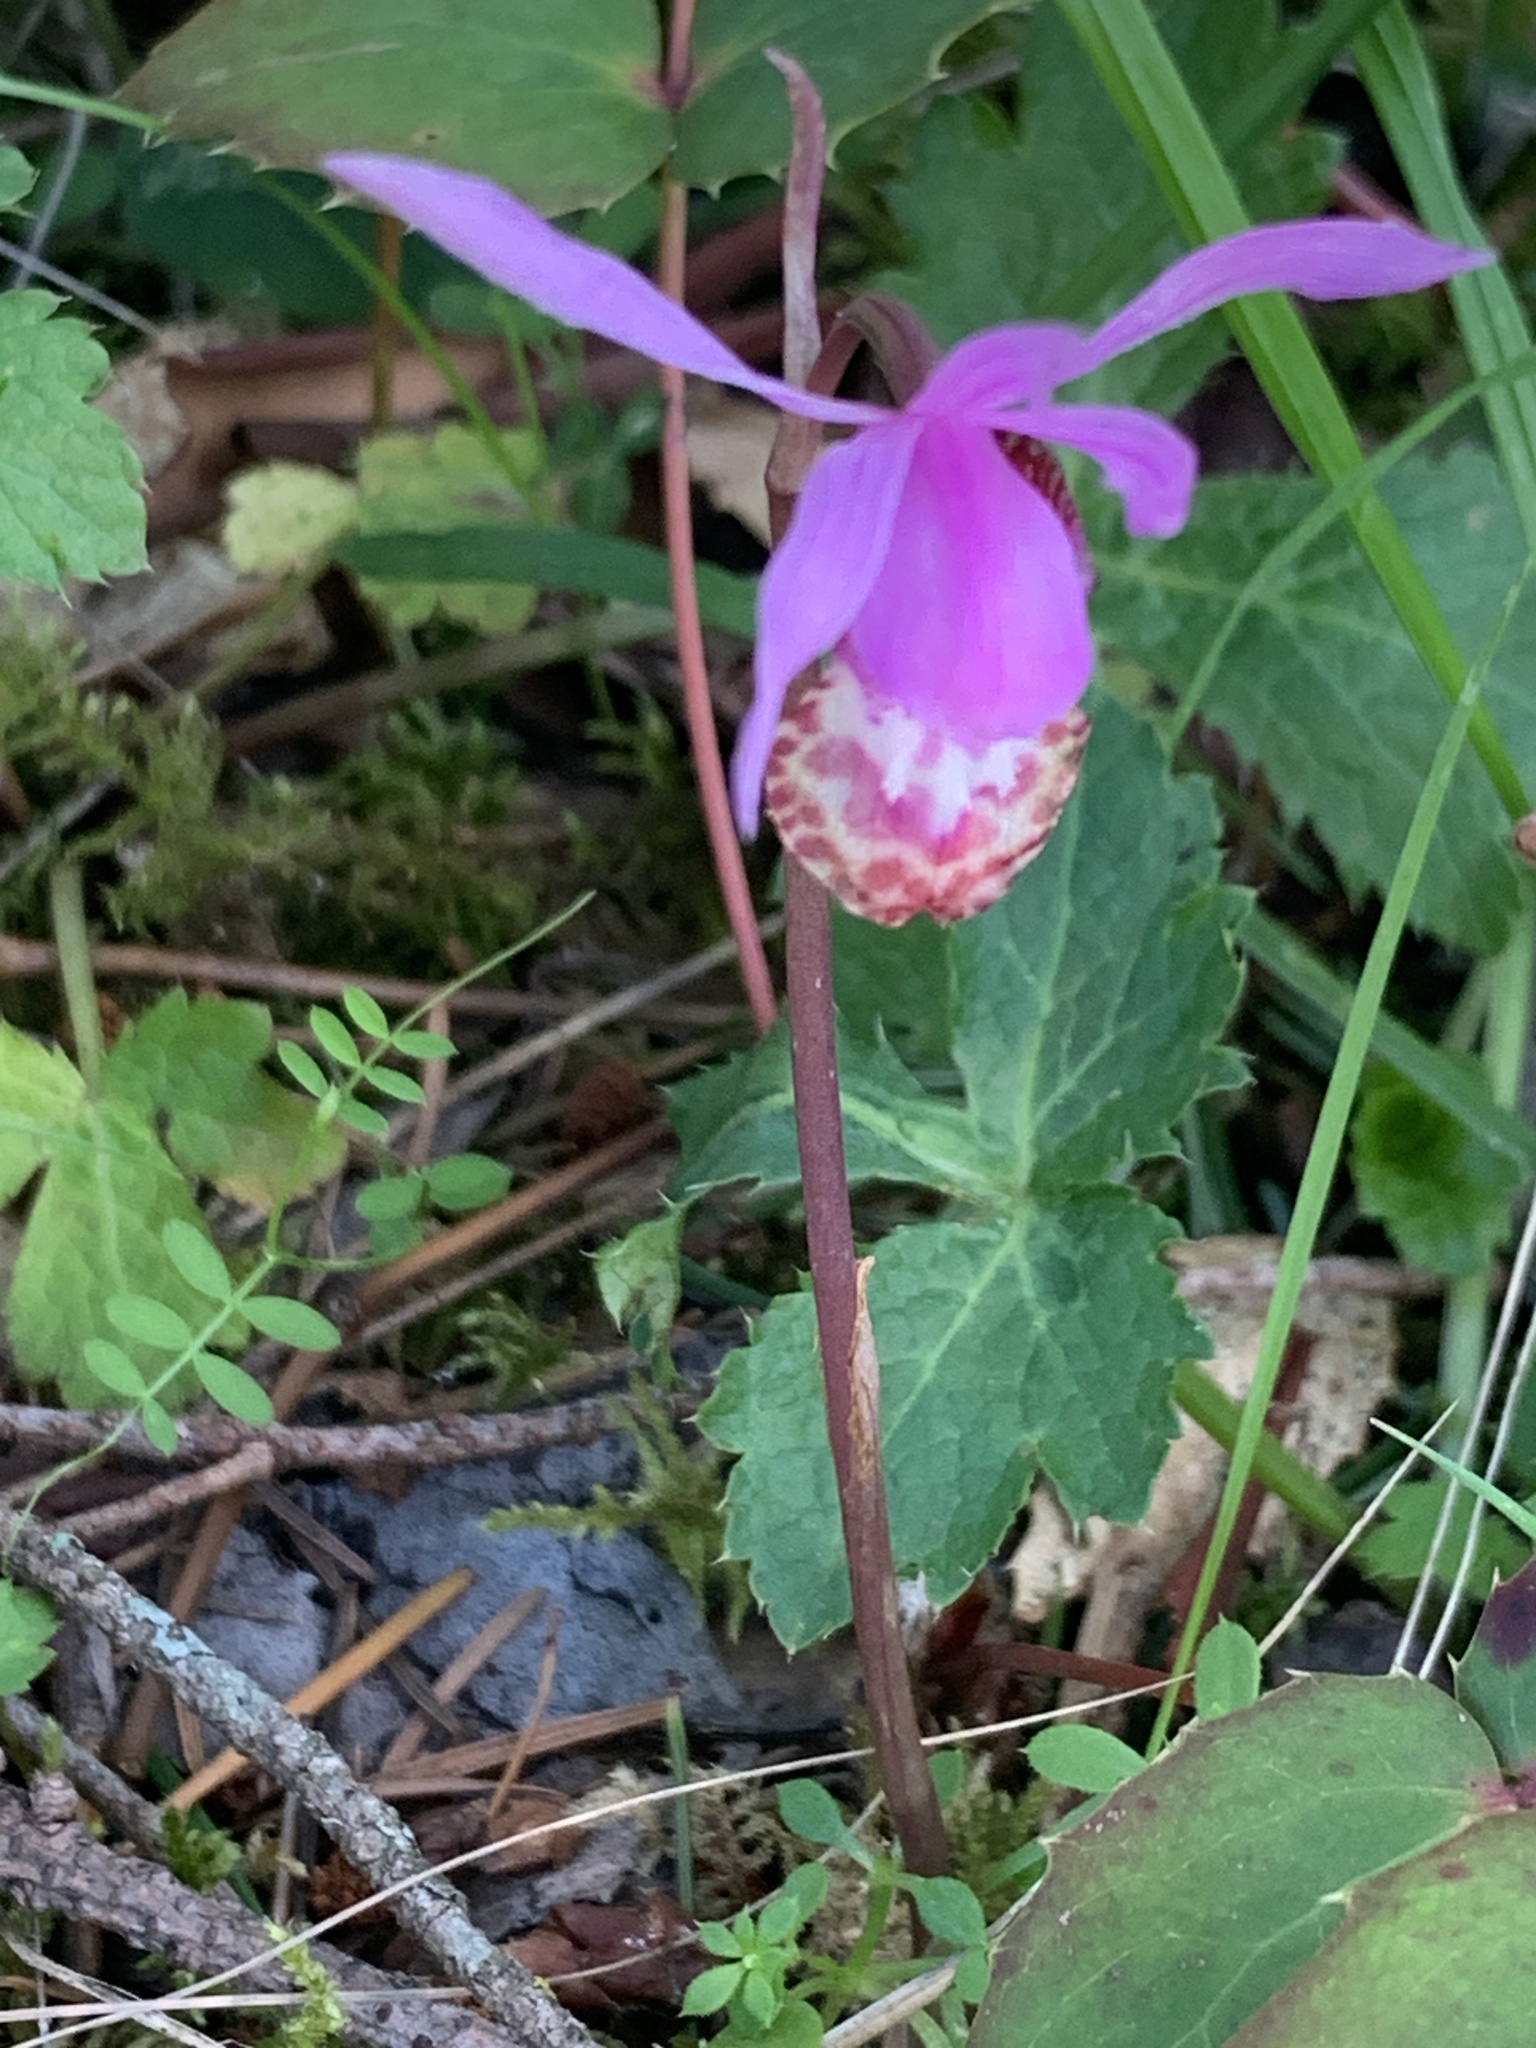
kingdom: Plantae
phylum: Tracheophyta
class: Liliopsida
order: Asparagales
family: Orchidaceae
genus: Calypso
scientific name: Calypso bulbosa
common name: Calypso
